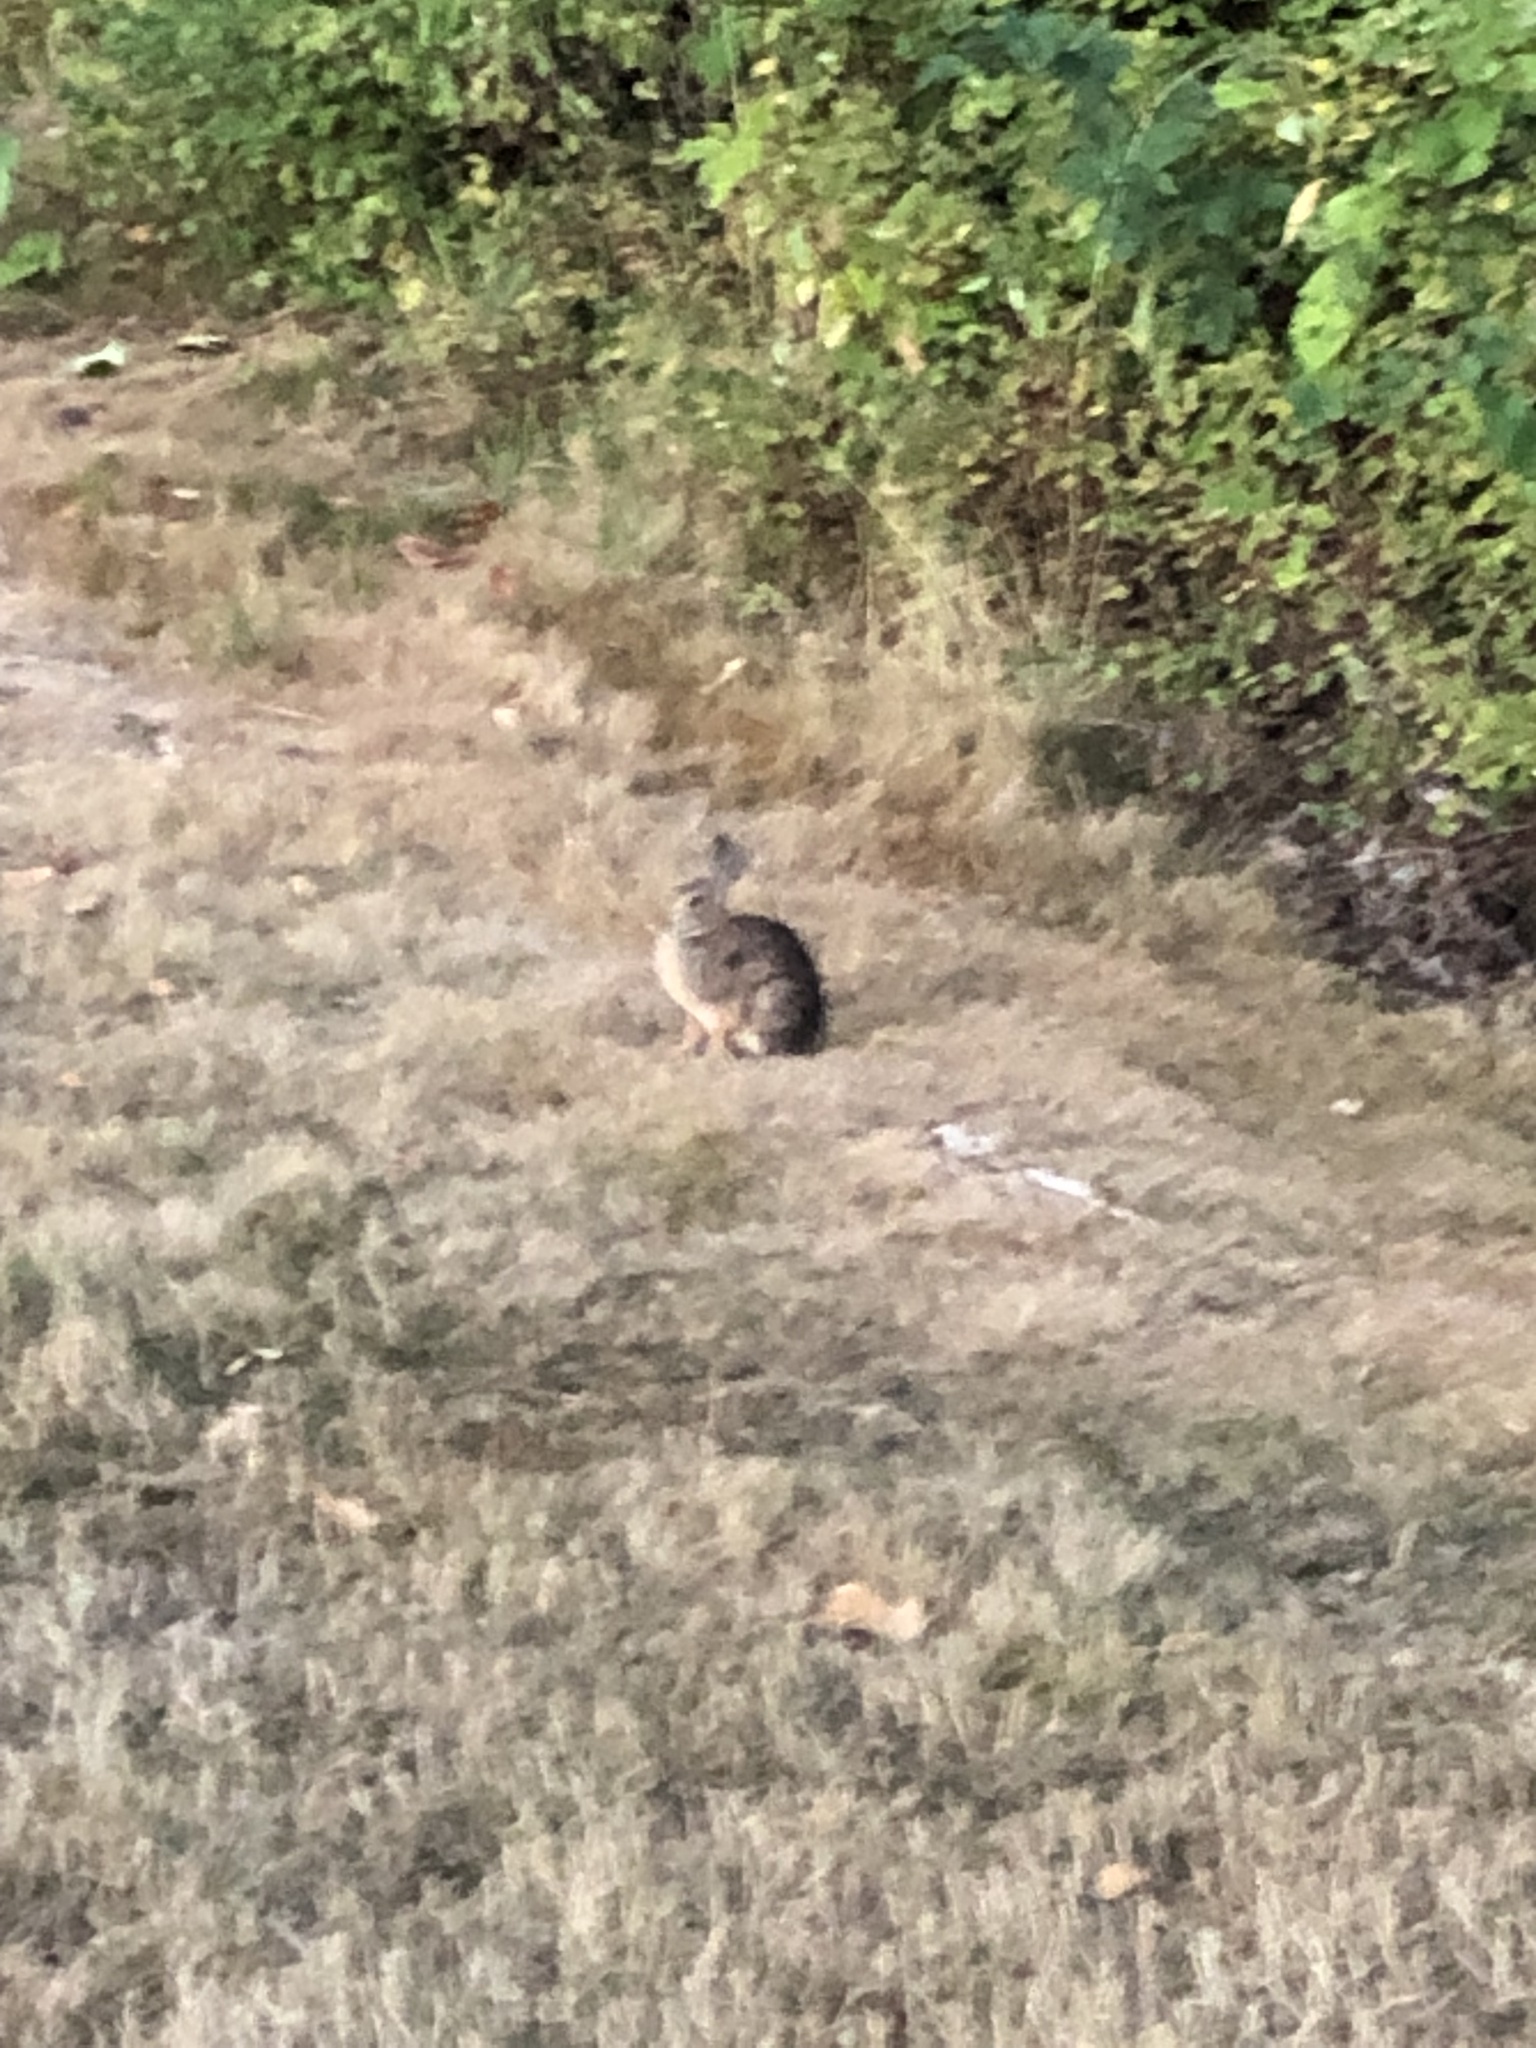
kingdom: Animalia
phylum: Chordata
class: Mammalia
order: Lagomorpha
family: Leporidae
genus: Sylvilagus
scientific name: Sylvilagus floridanus
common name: Eastern cottontail
